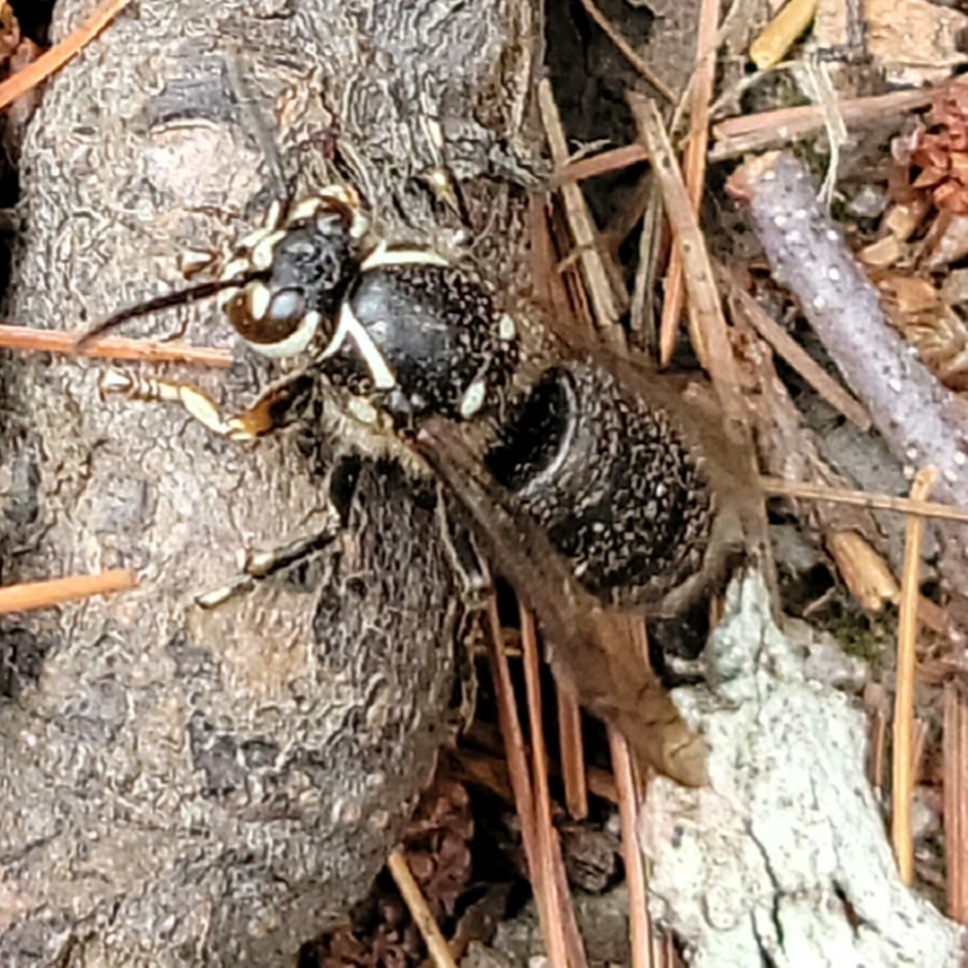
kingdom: Animalia
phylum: Arthropoda
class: Insecta
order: Hymenoptera
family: Vespidae
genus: Dolichovespula
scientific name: Dolichovespula maculata
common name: Bald-faced hornet
